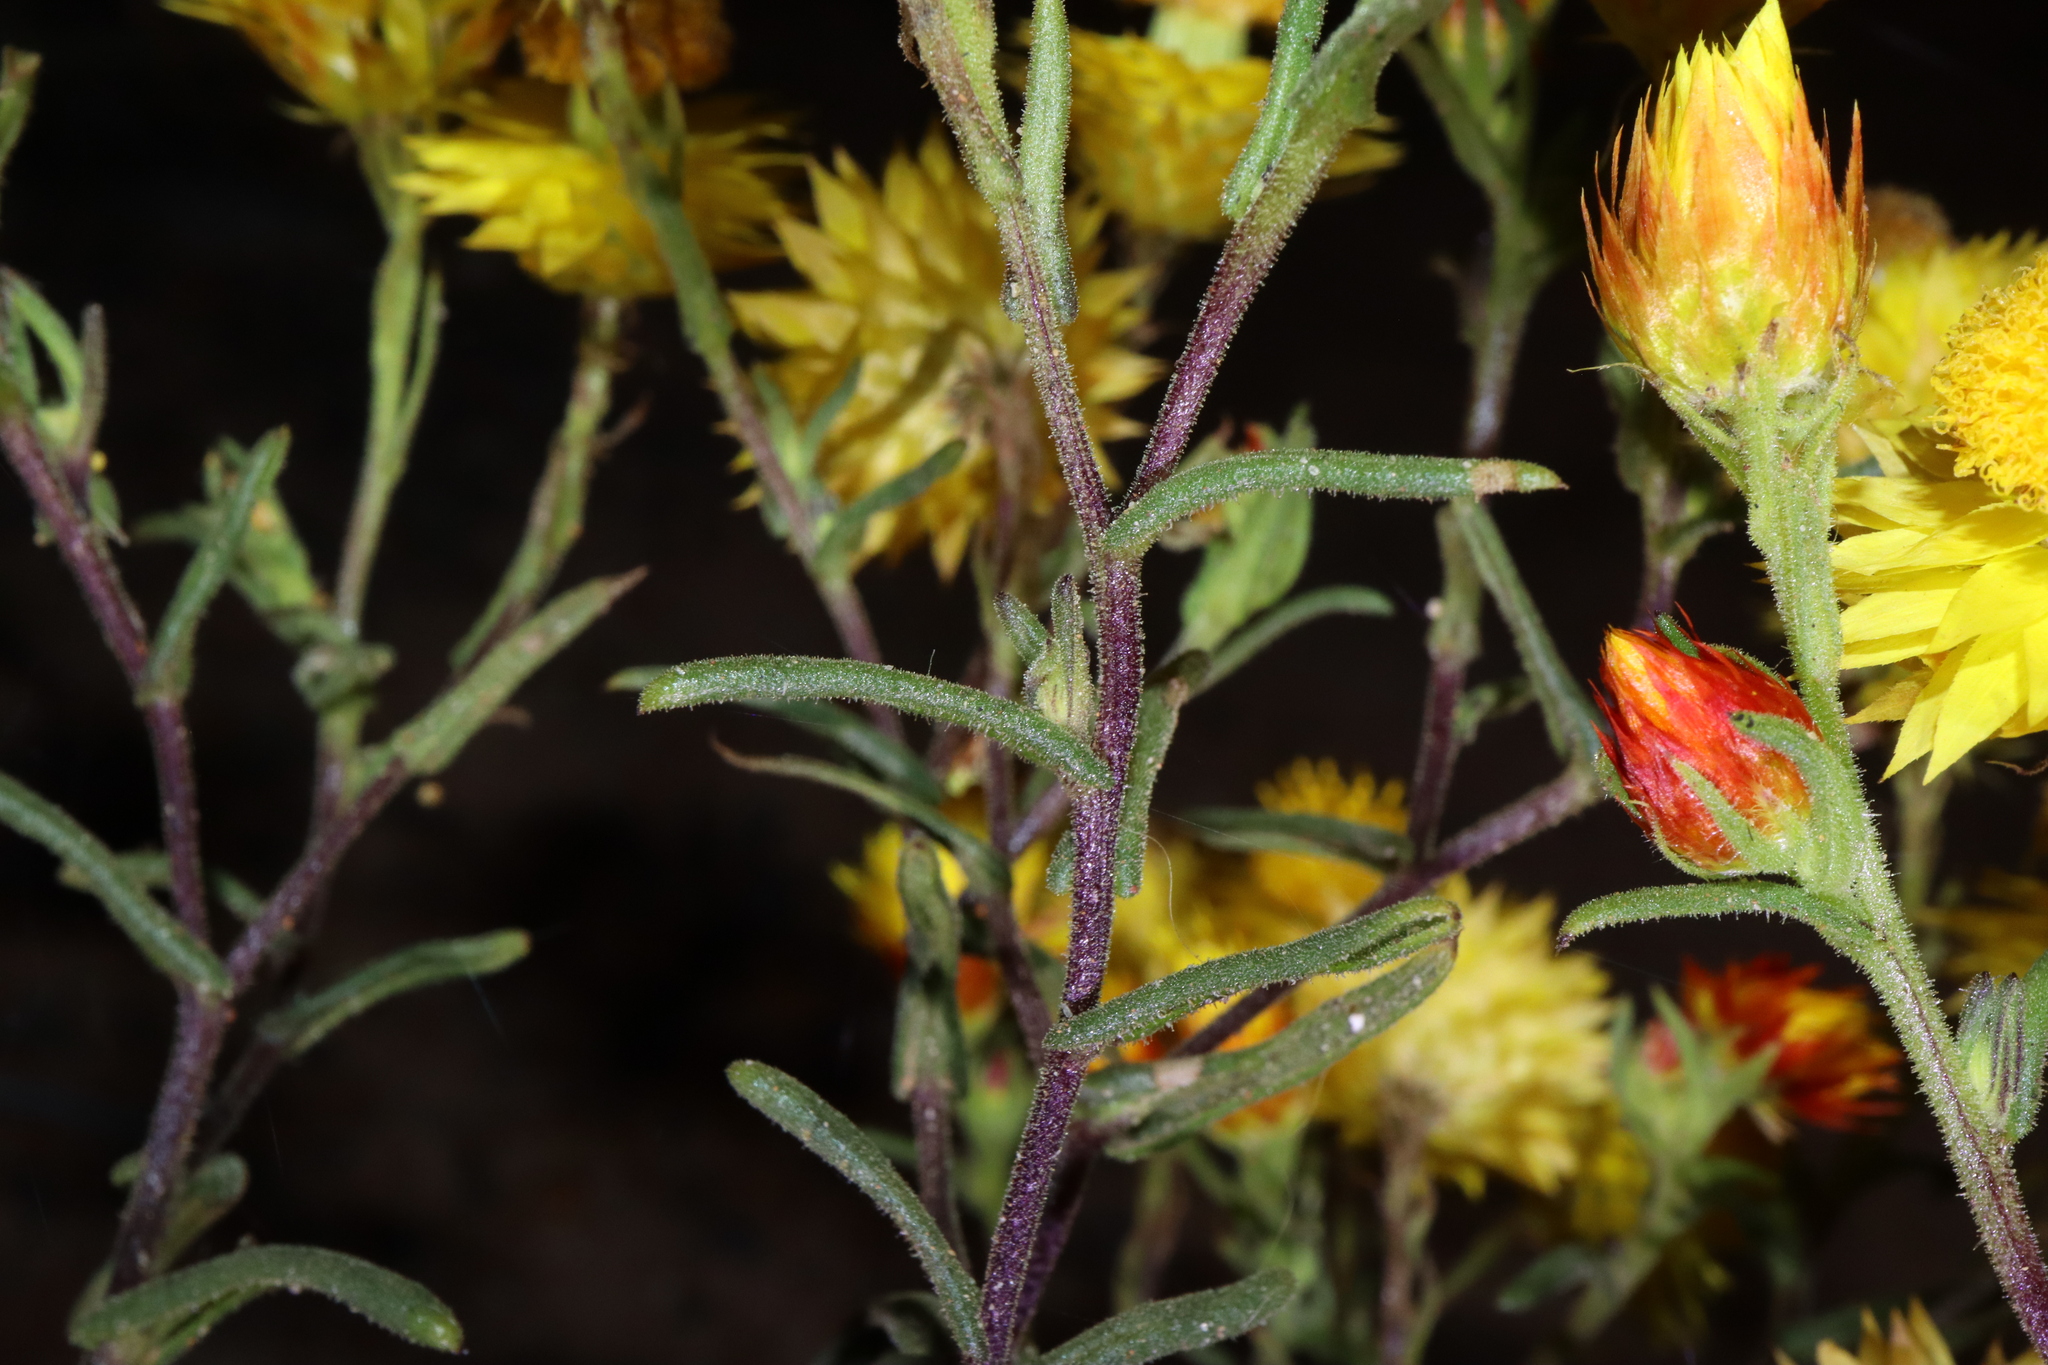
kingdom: Plantae
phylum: Tracheophyta
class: Magnoliopsida
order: Asterales
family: Asteraceae
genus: Waitzia
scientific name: Waitzia acuminata
